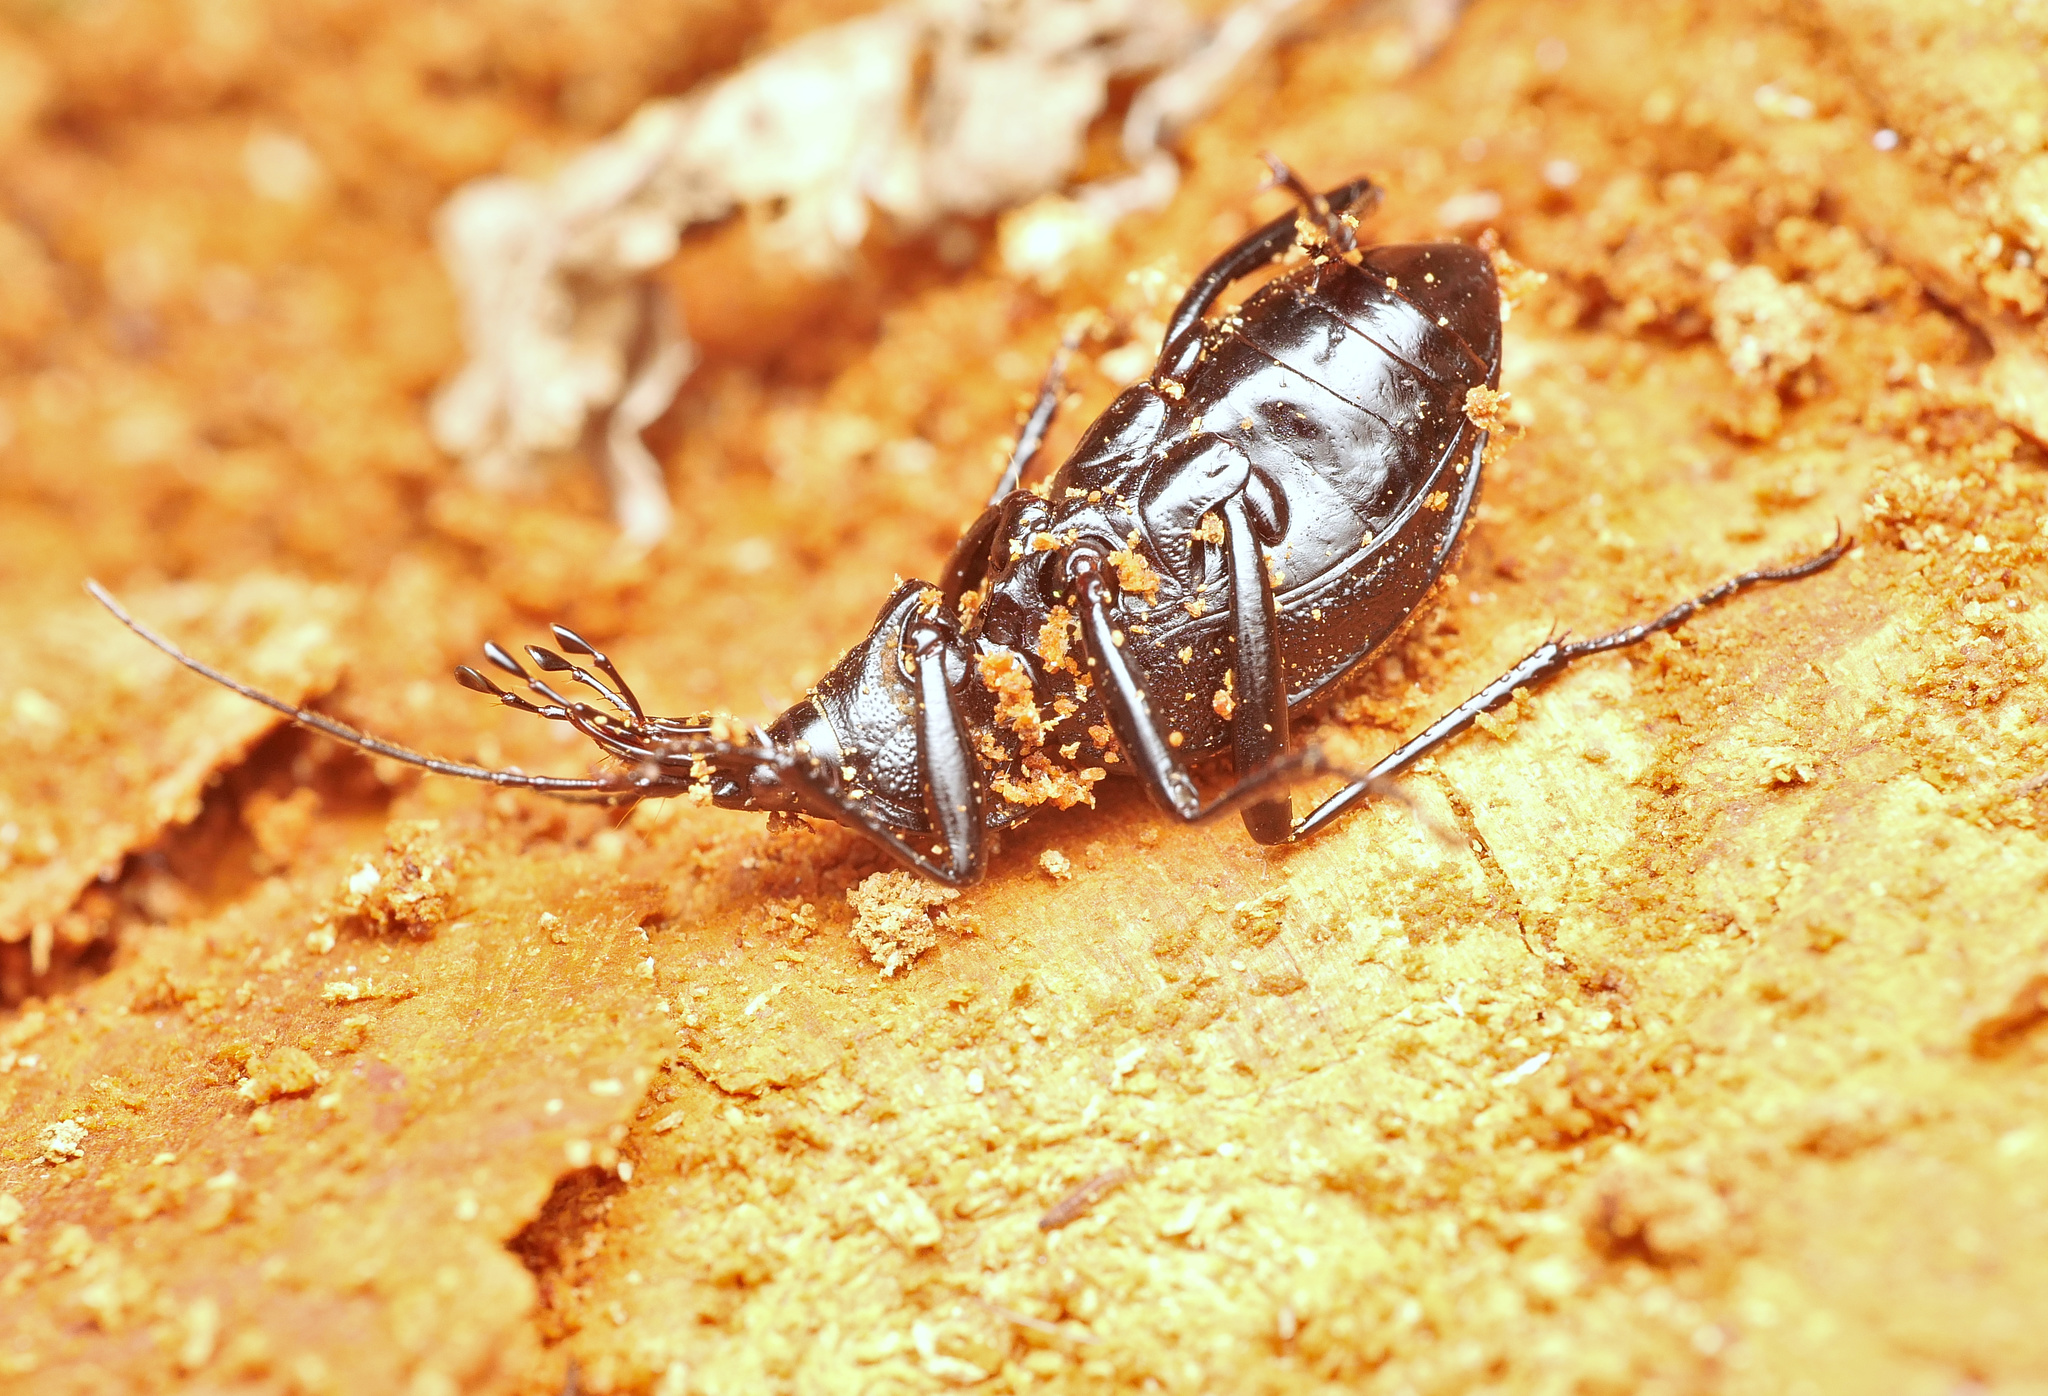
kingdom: Animalia
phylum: Arthropoda
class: Insecta
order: Coleoptera
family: Carabidae
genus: Cychrus
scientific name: Cychrus caraboides
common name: Snail hunter
